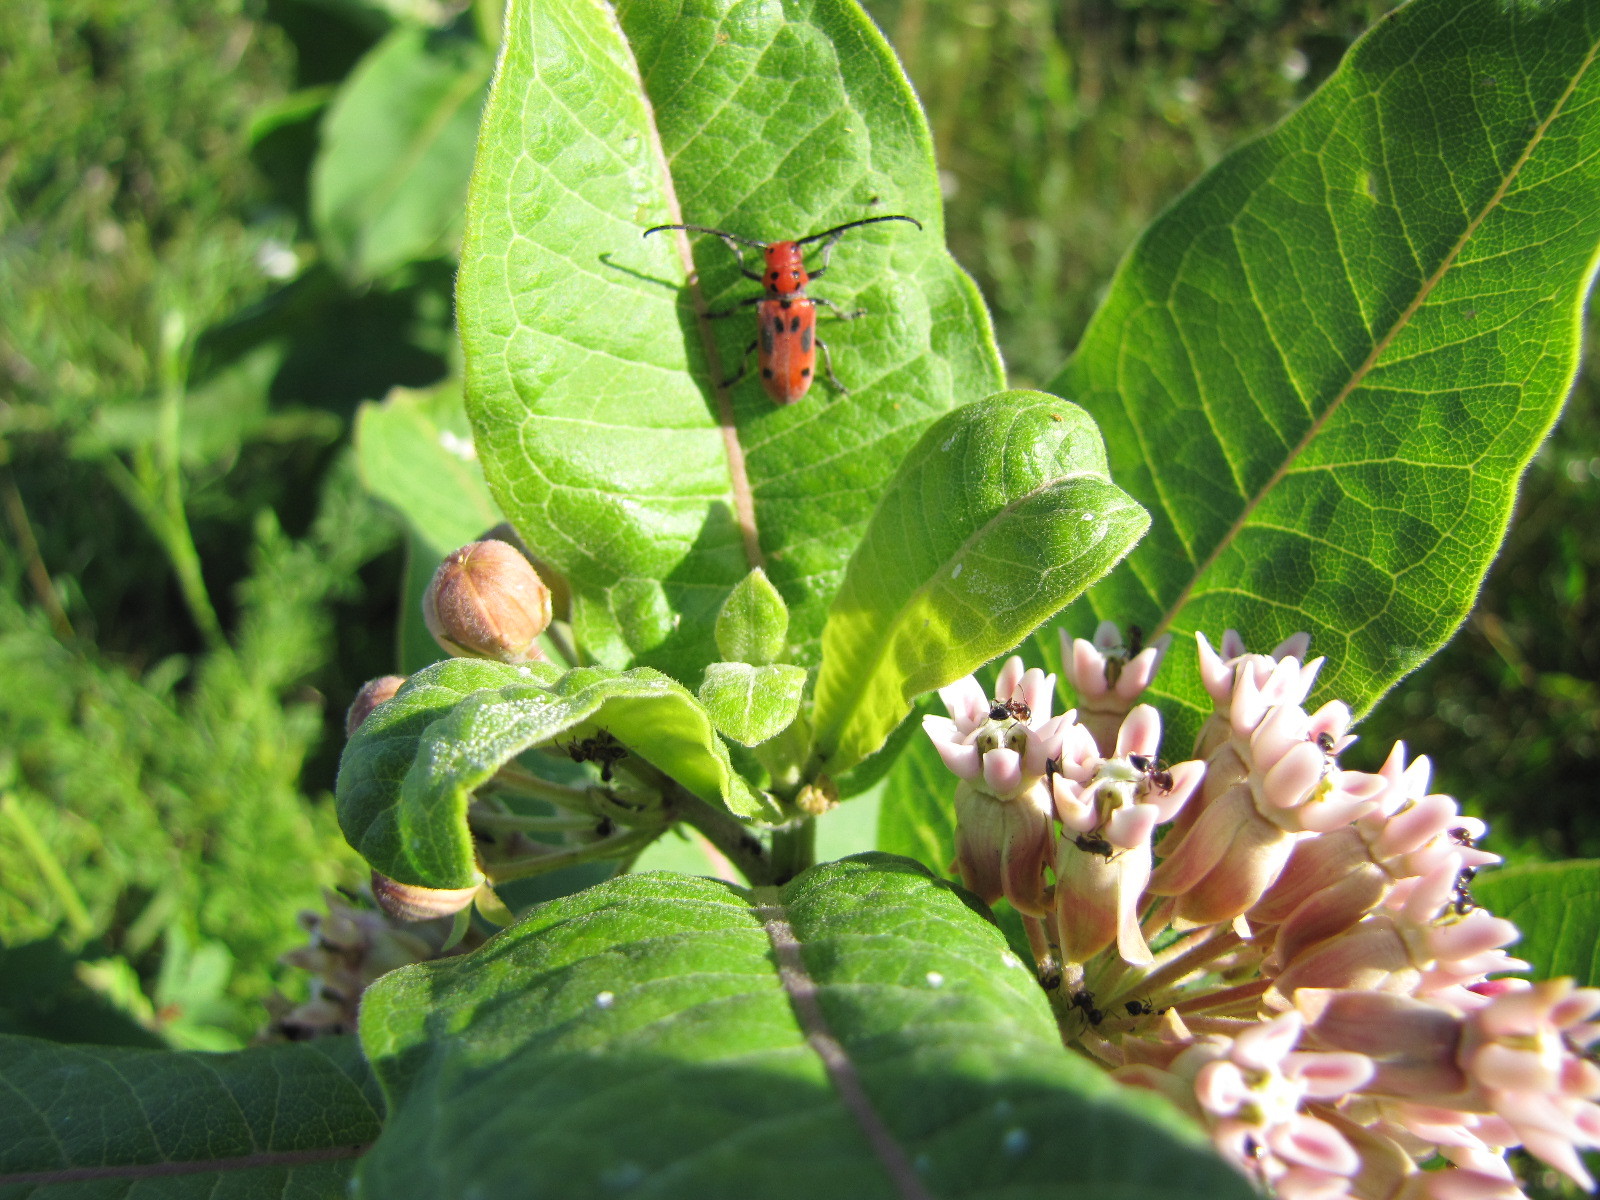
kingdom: Animalia
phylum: Arthropoda
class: Insecta
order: Coleoptera
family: Cerambycidae
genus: Tetraopes
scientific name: Tetraopes tetrophthalmus
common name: Red milkweed beetle
